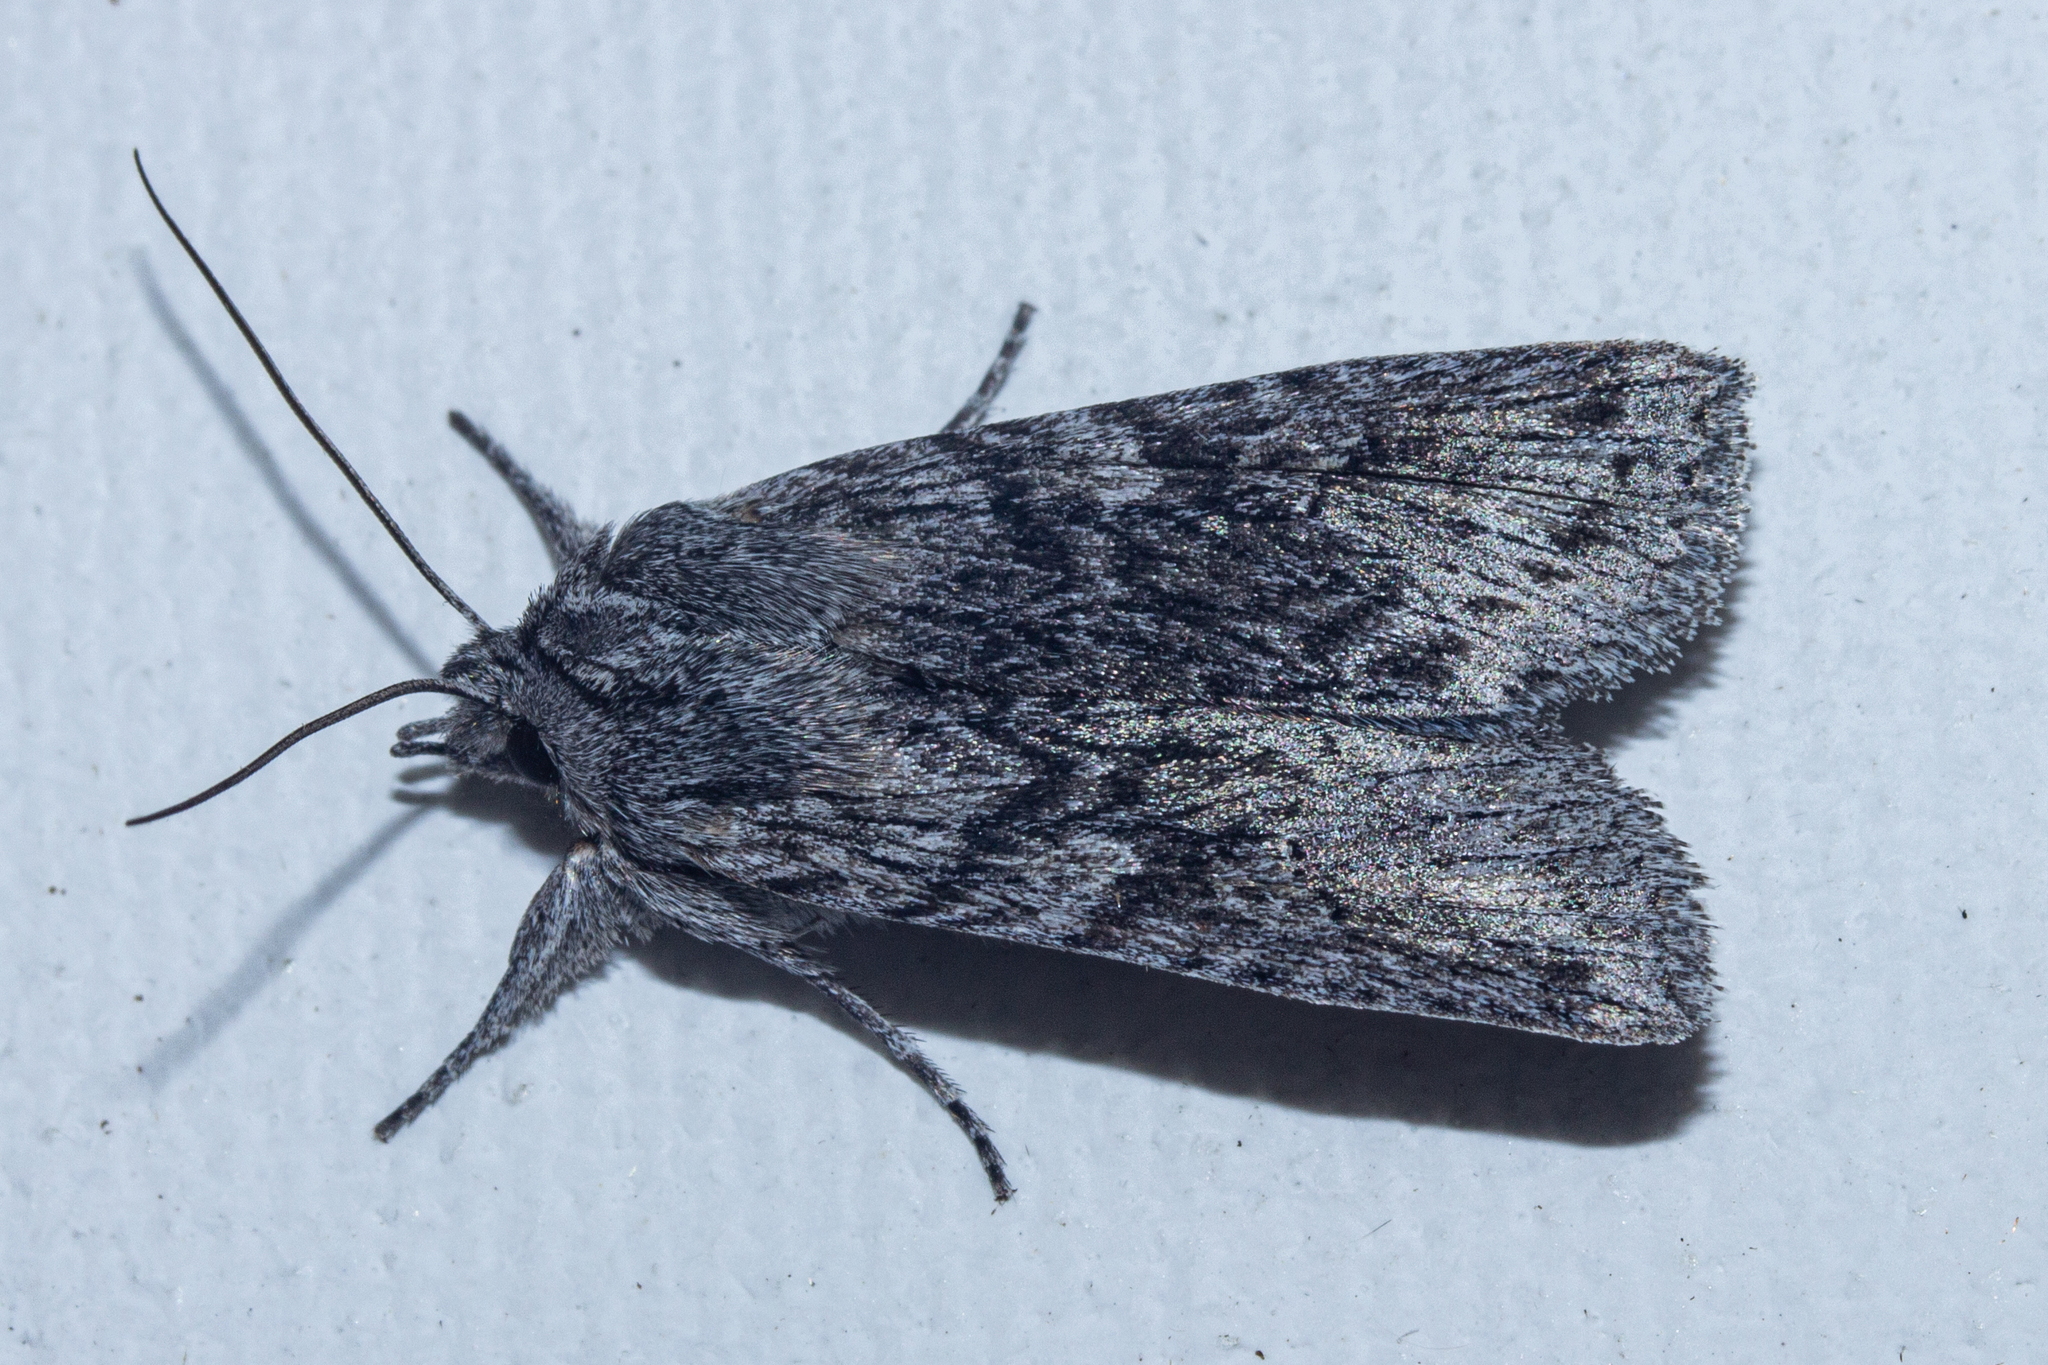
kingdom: Animalia
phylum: Arthropoda
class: Insecta
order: Lepidoptera
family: Noctuidae
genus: Physetica
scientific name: Physetica phricias
